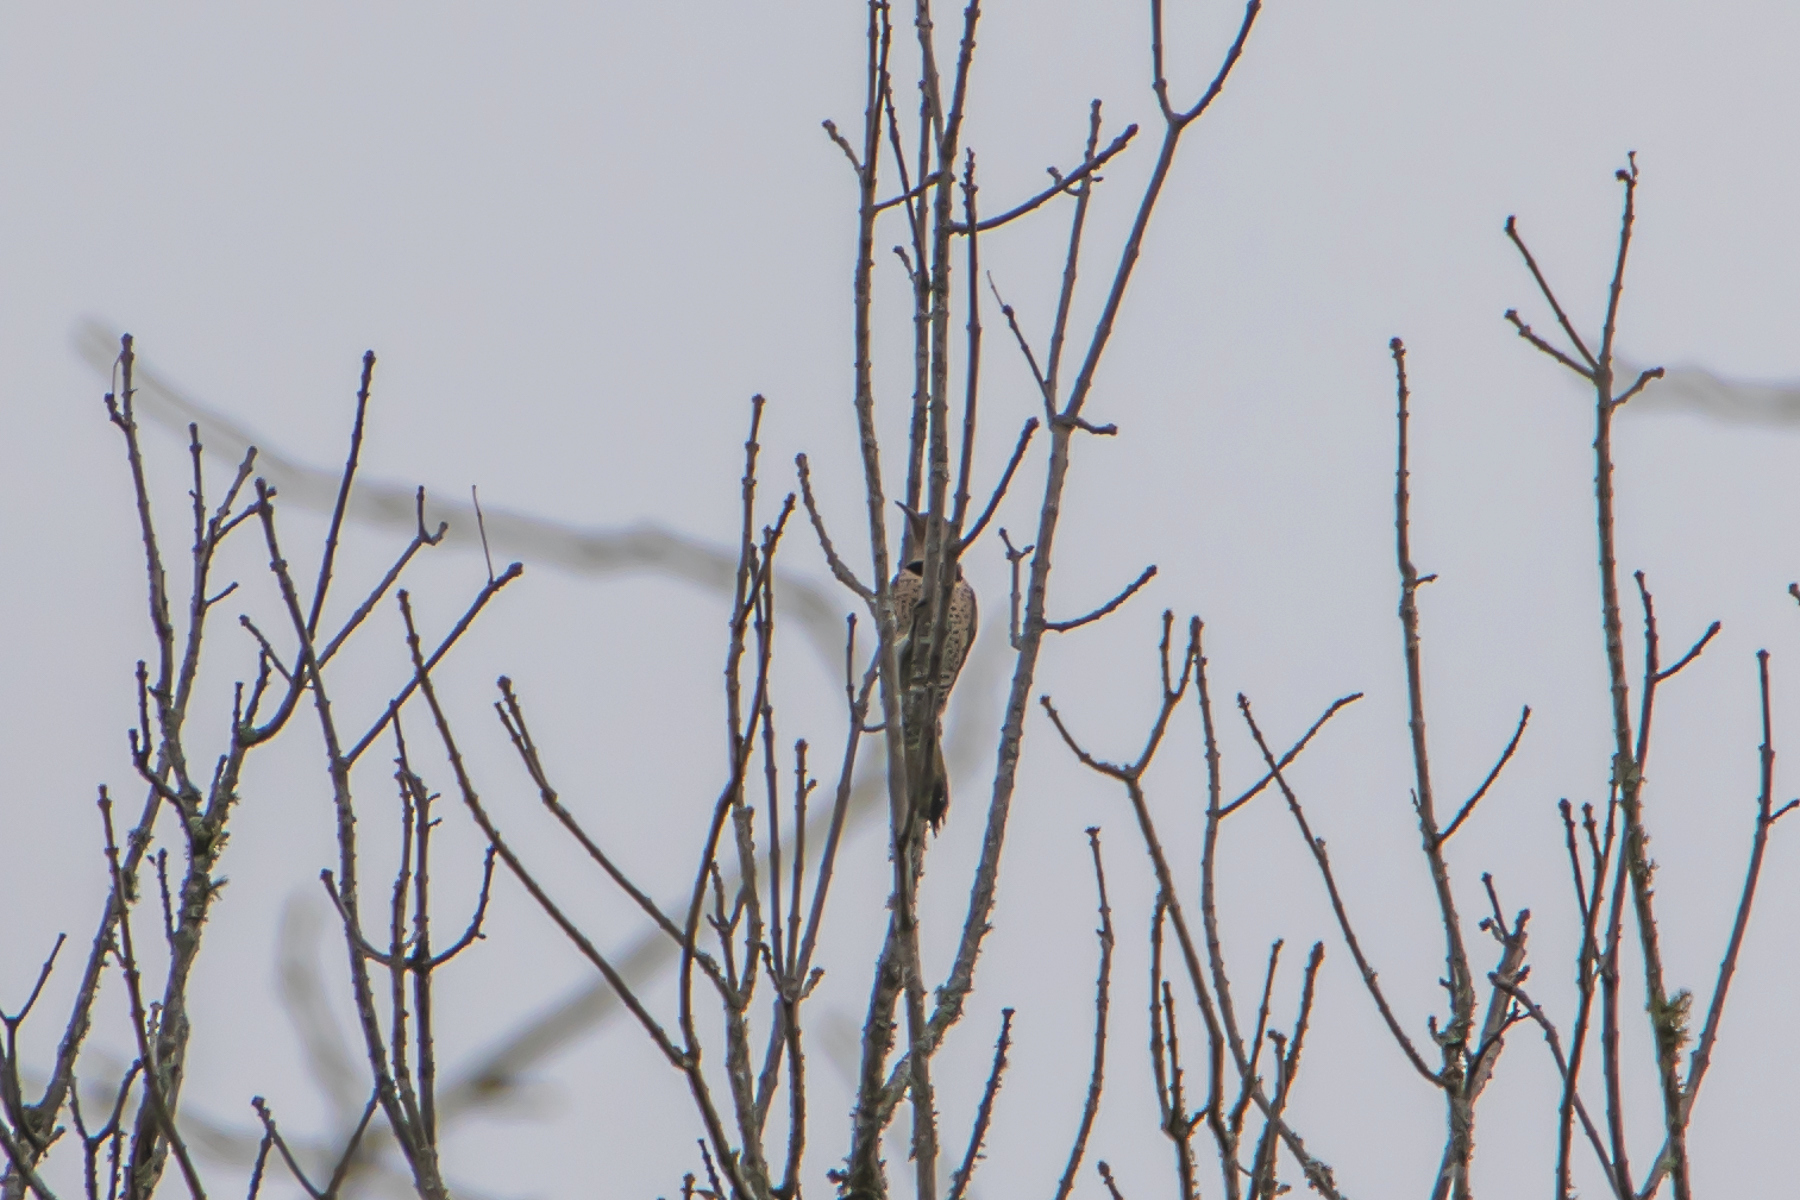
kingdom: Animalia
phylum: Chordata
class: Aves
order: Piciformes
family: Picidae
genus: Colaptes
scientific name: Colaptes auratus
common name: Northern flicker
